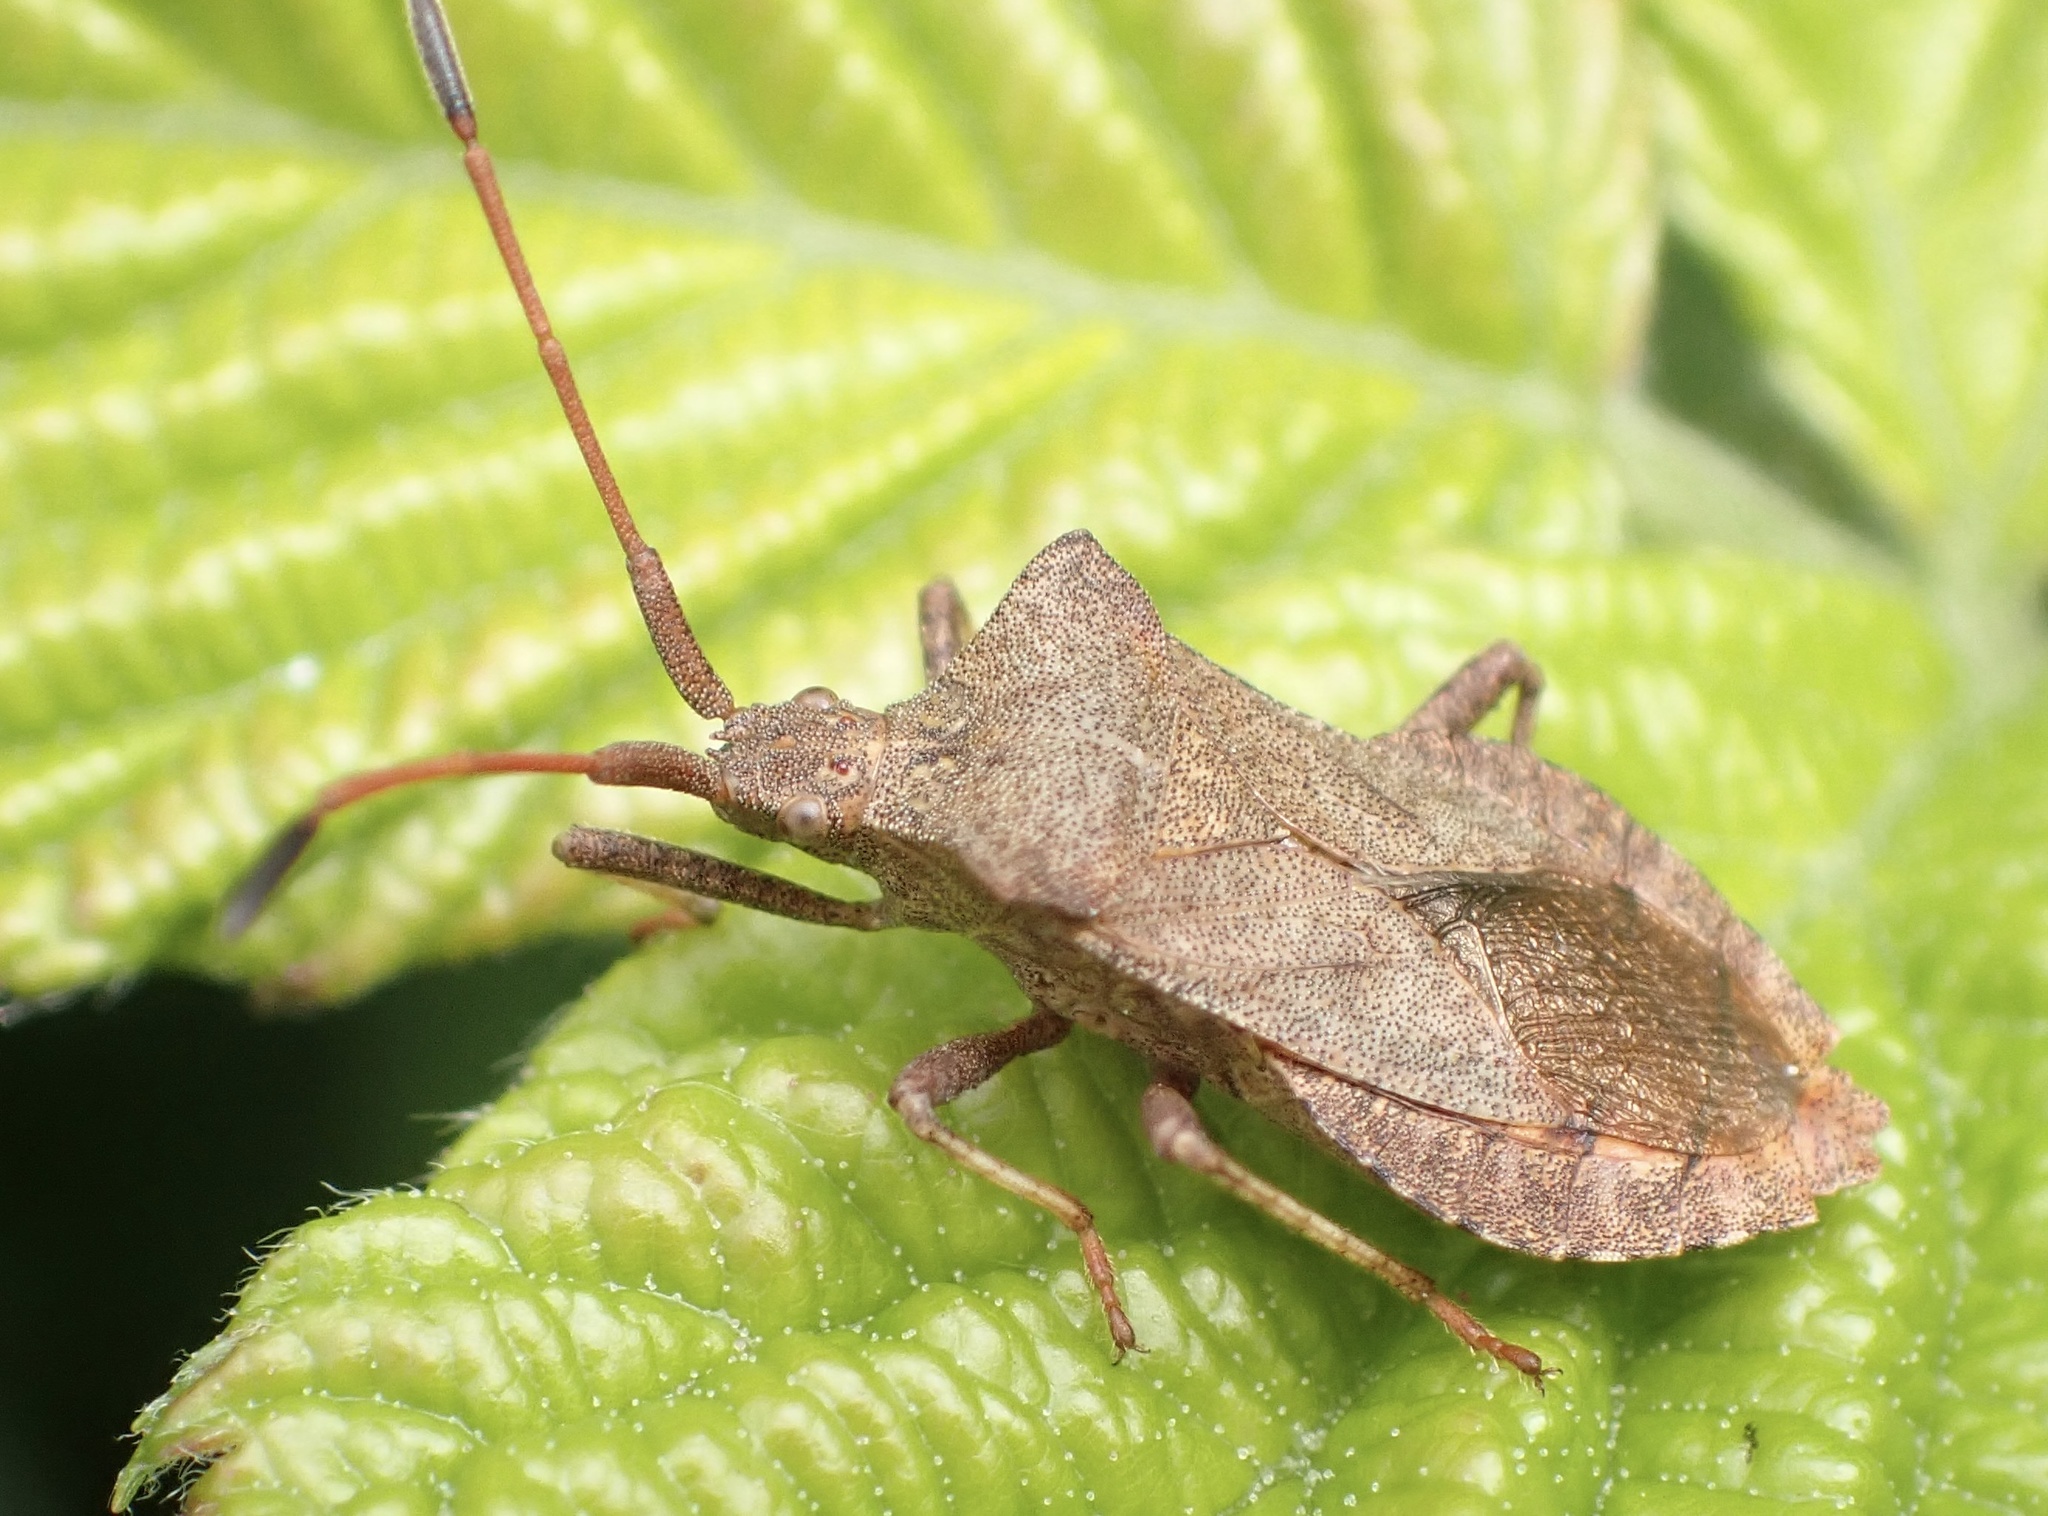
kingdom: Animalia
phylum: Arthropoda
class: Insecta
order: Hemiptera
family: Coreidae
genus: Coreus
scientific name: Coreus marginatus
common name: Dock bug
